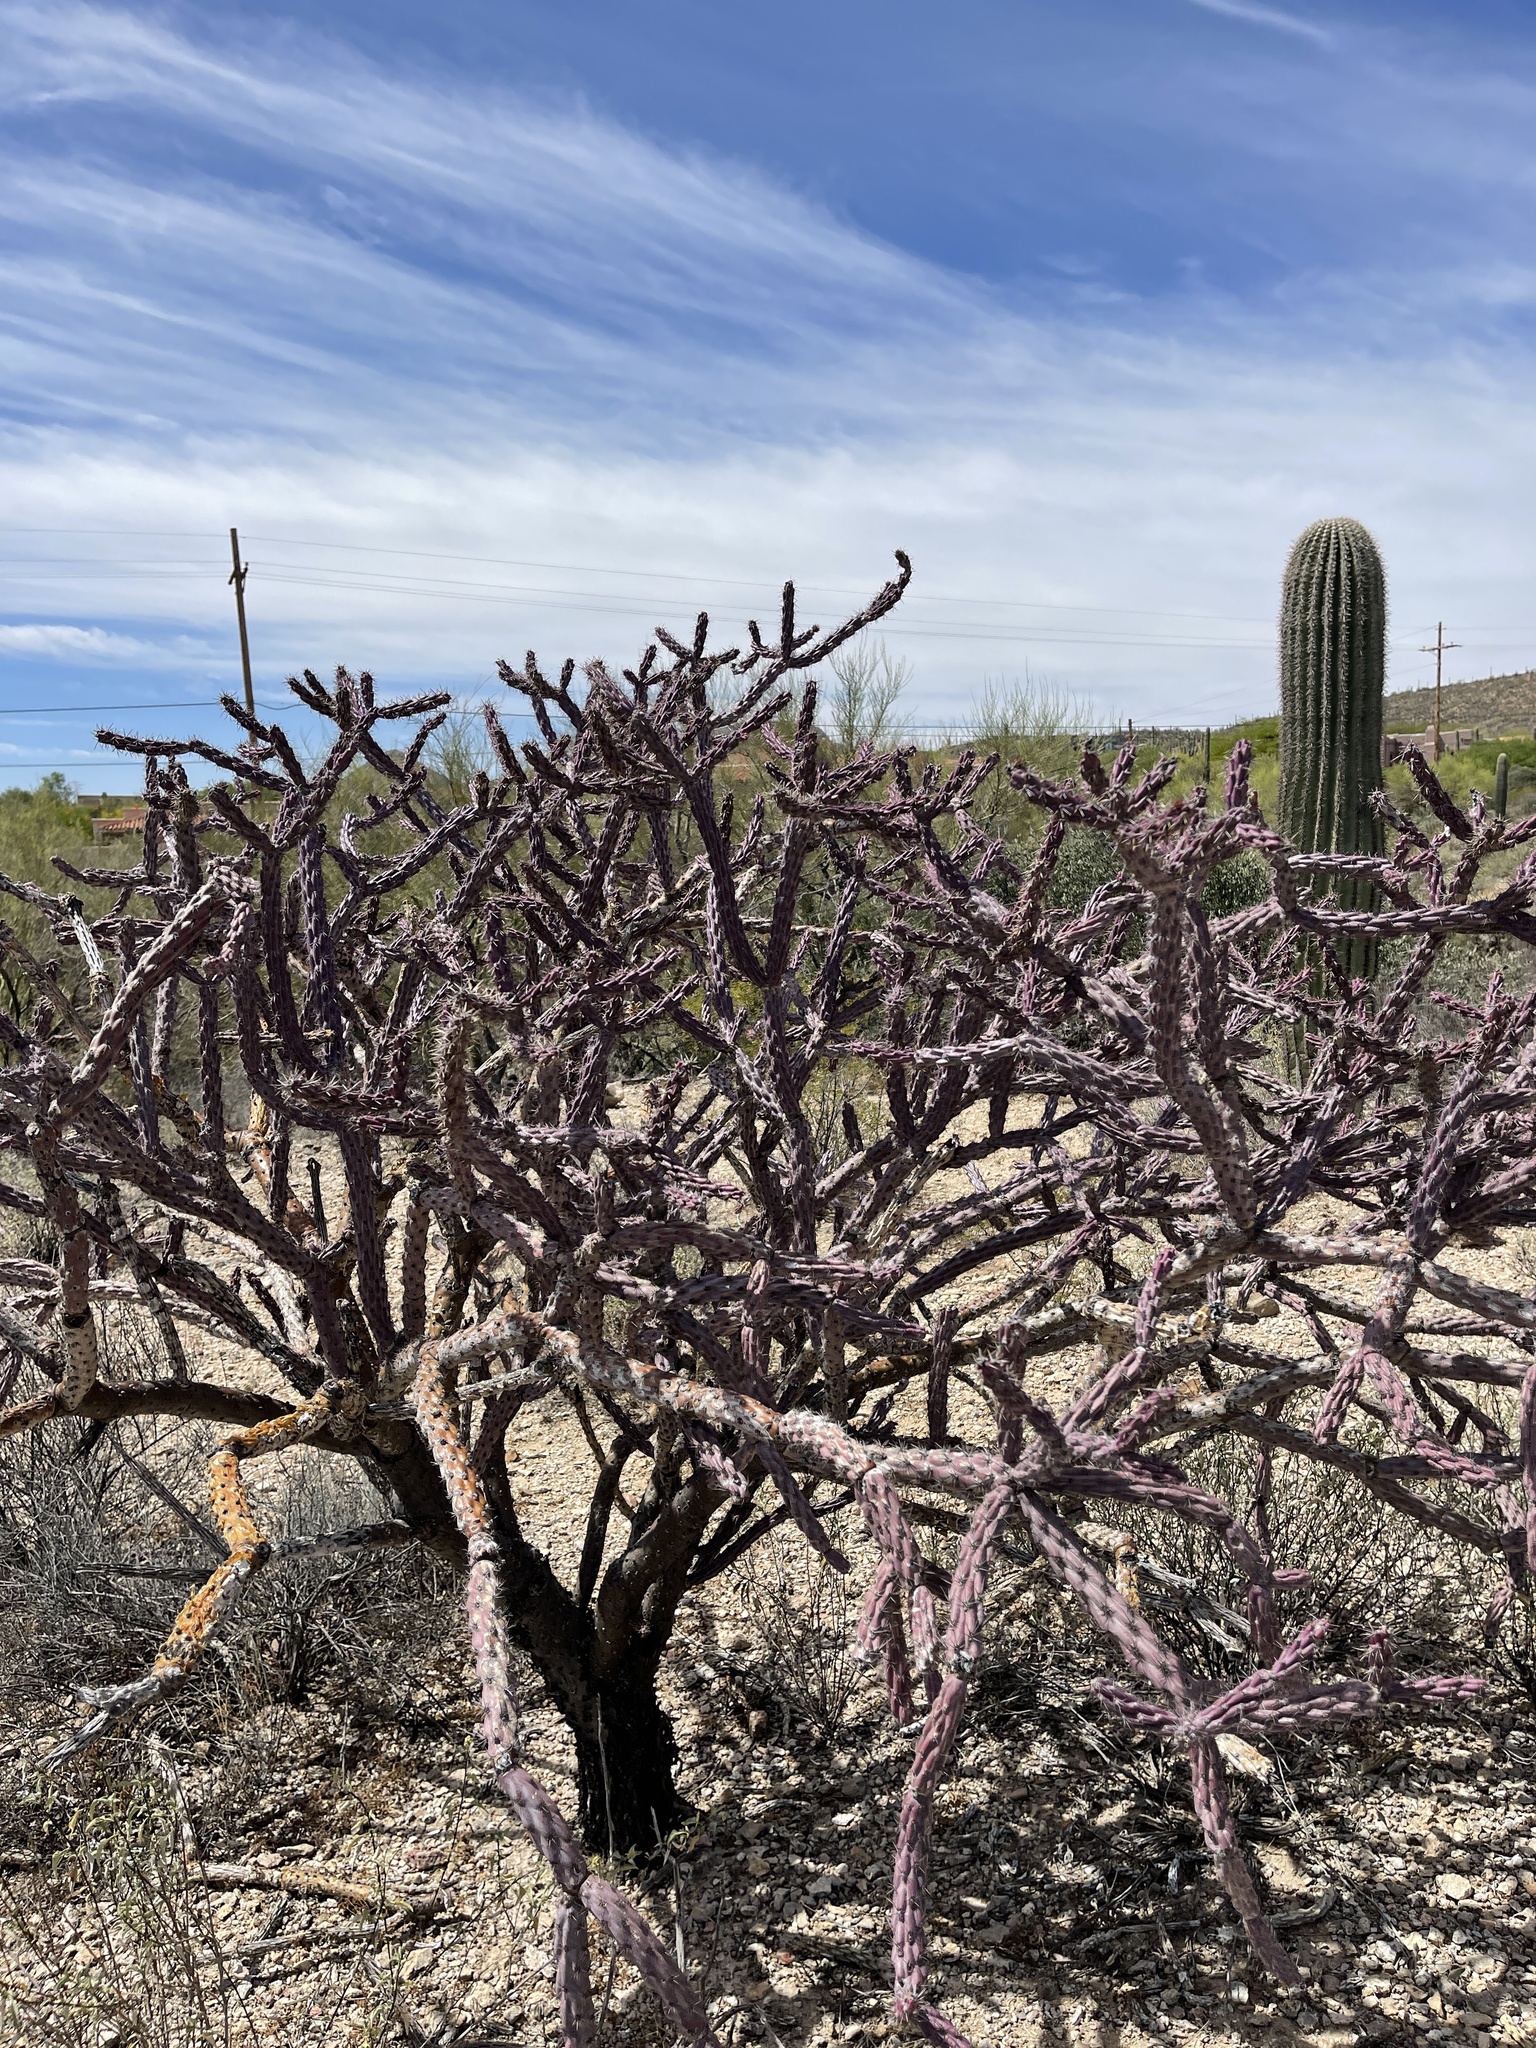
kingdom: Plantae
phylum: Tracheophyta
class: Magnoliopsida
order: Caryophyllales
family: Cactaceae
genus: Cylindropuntia
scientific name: Cylindropuntia thurberi
